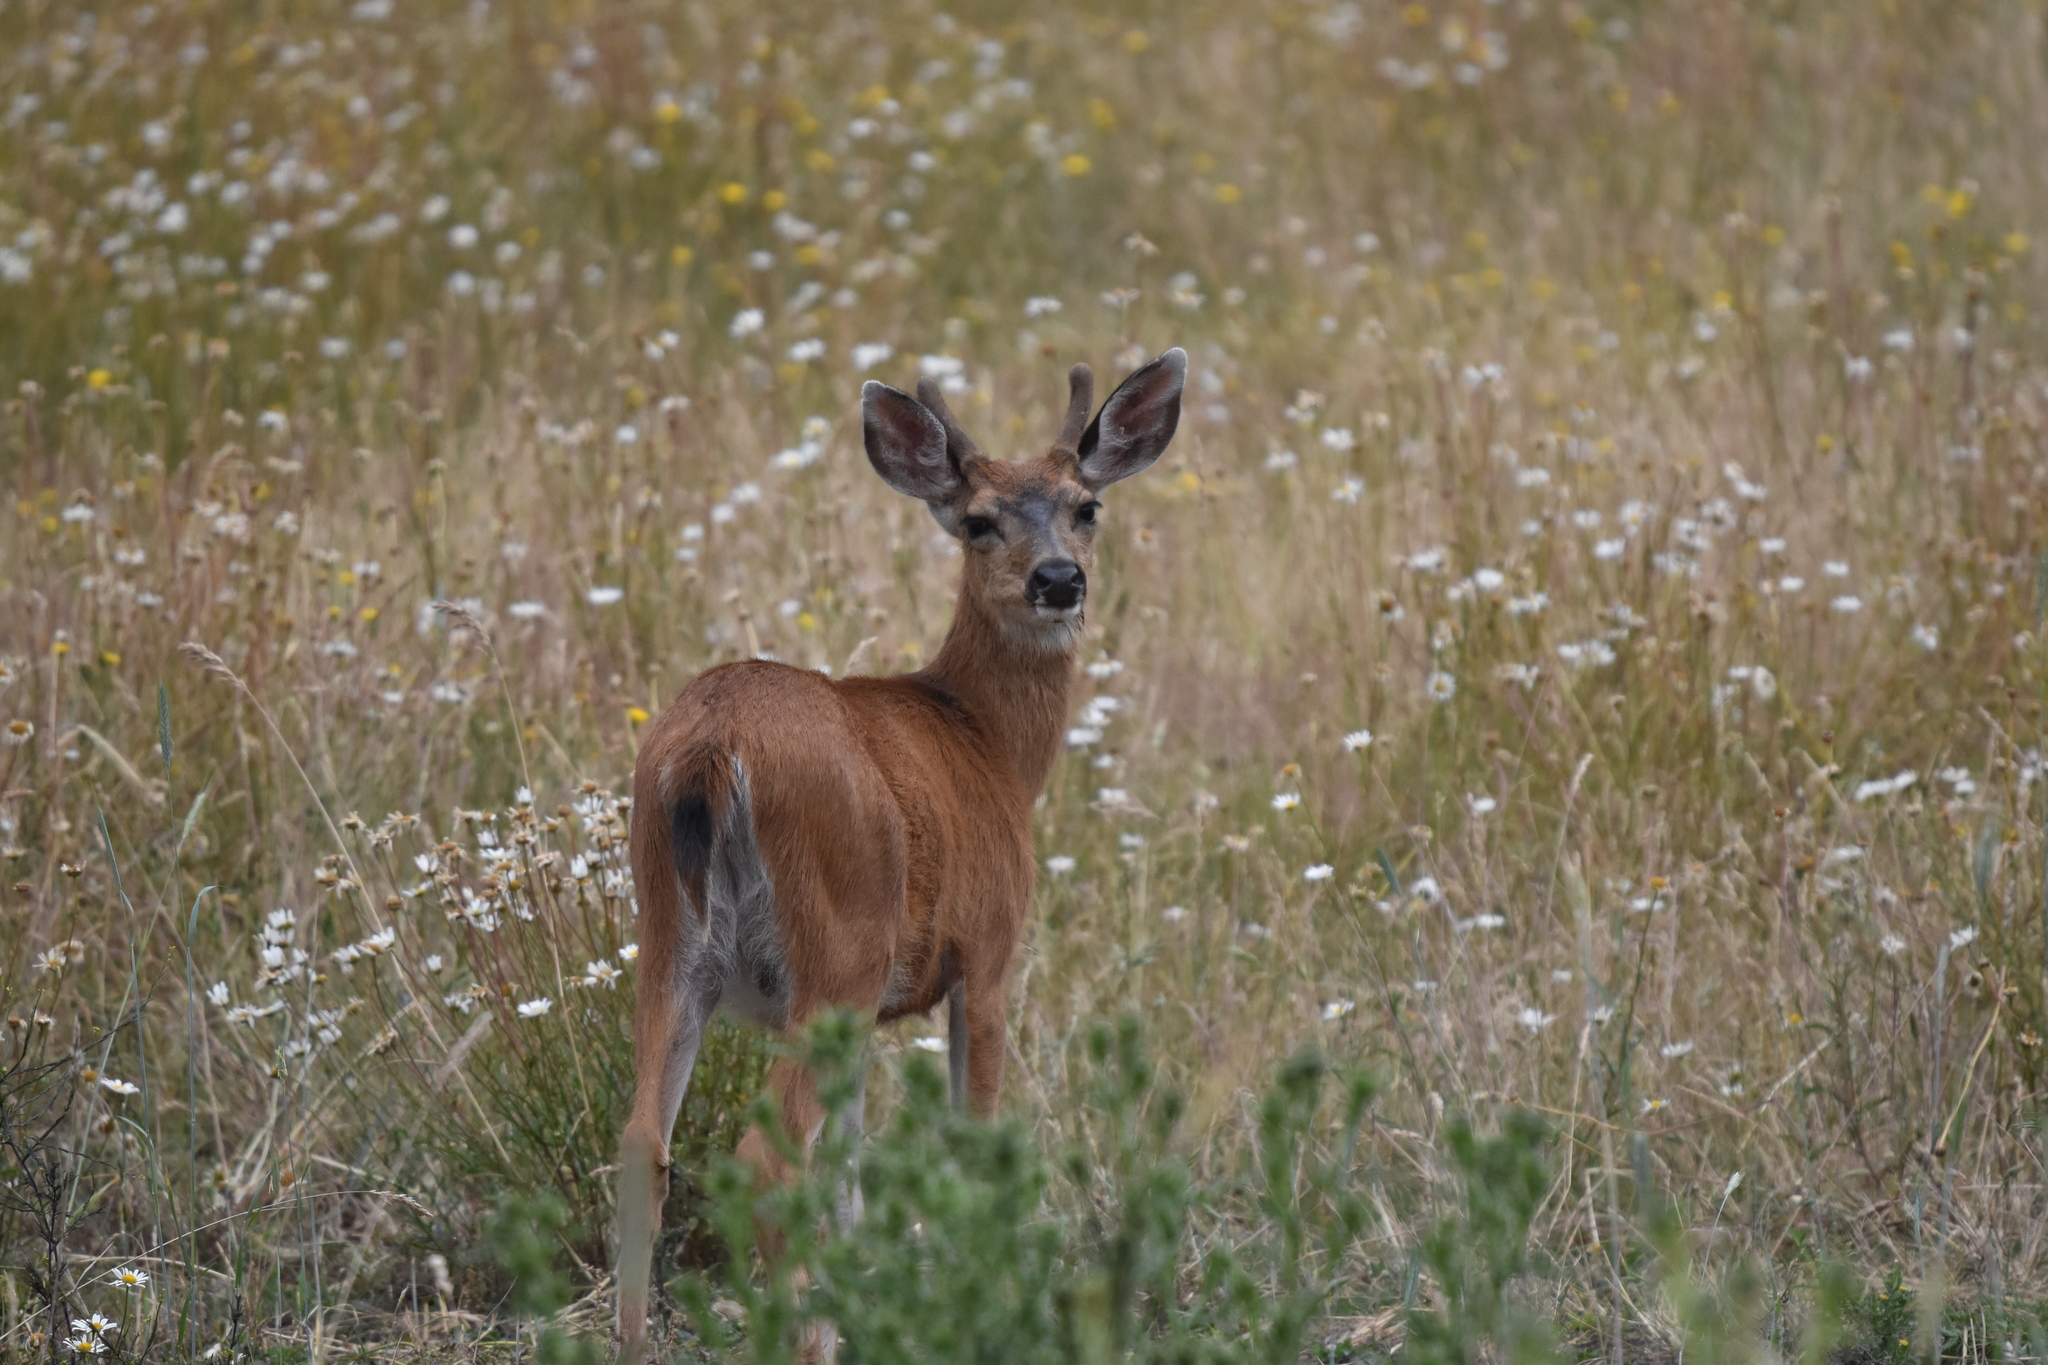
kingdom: Animalia
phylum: Chordata
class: Mammalia
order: Artiodactyla
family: Cervidae
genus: Odocoileus
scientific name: Odocoileus hemionus
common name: Mule deer
